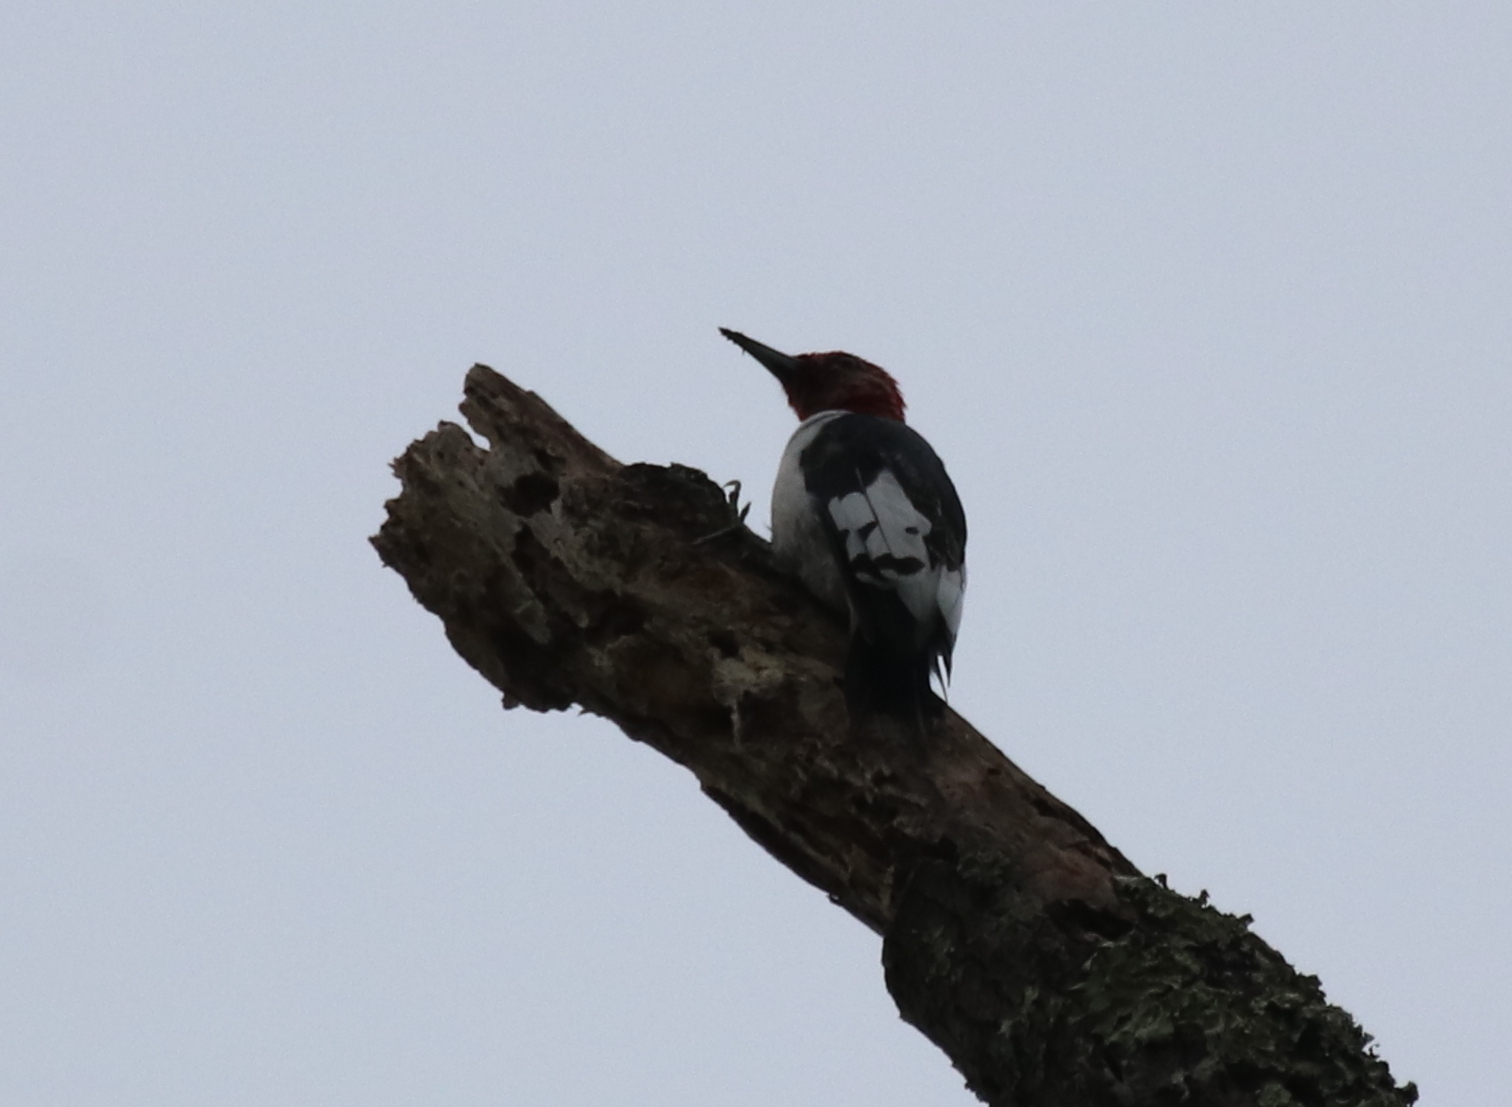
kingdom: Animalia
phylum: Chordata
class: Aves
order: Piciformes
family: Picidae
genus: Melanerpes
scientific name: Melanerpes erythrocephalus
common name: Red-headed woodpecker
